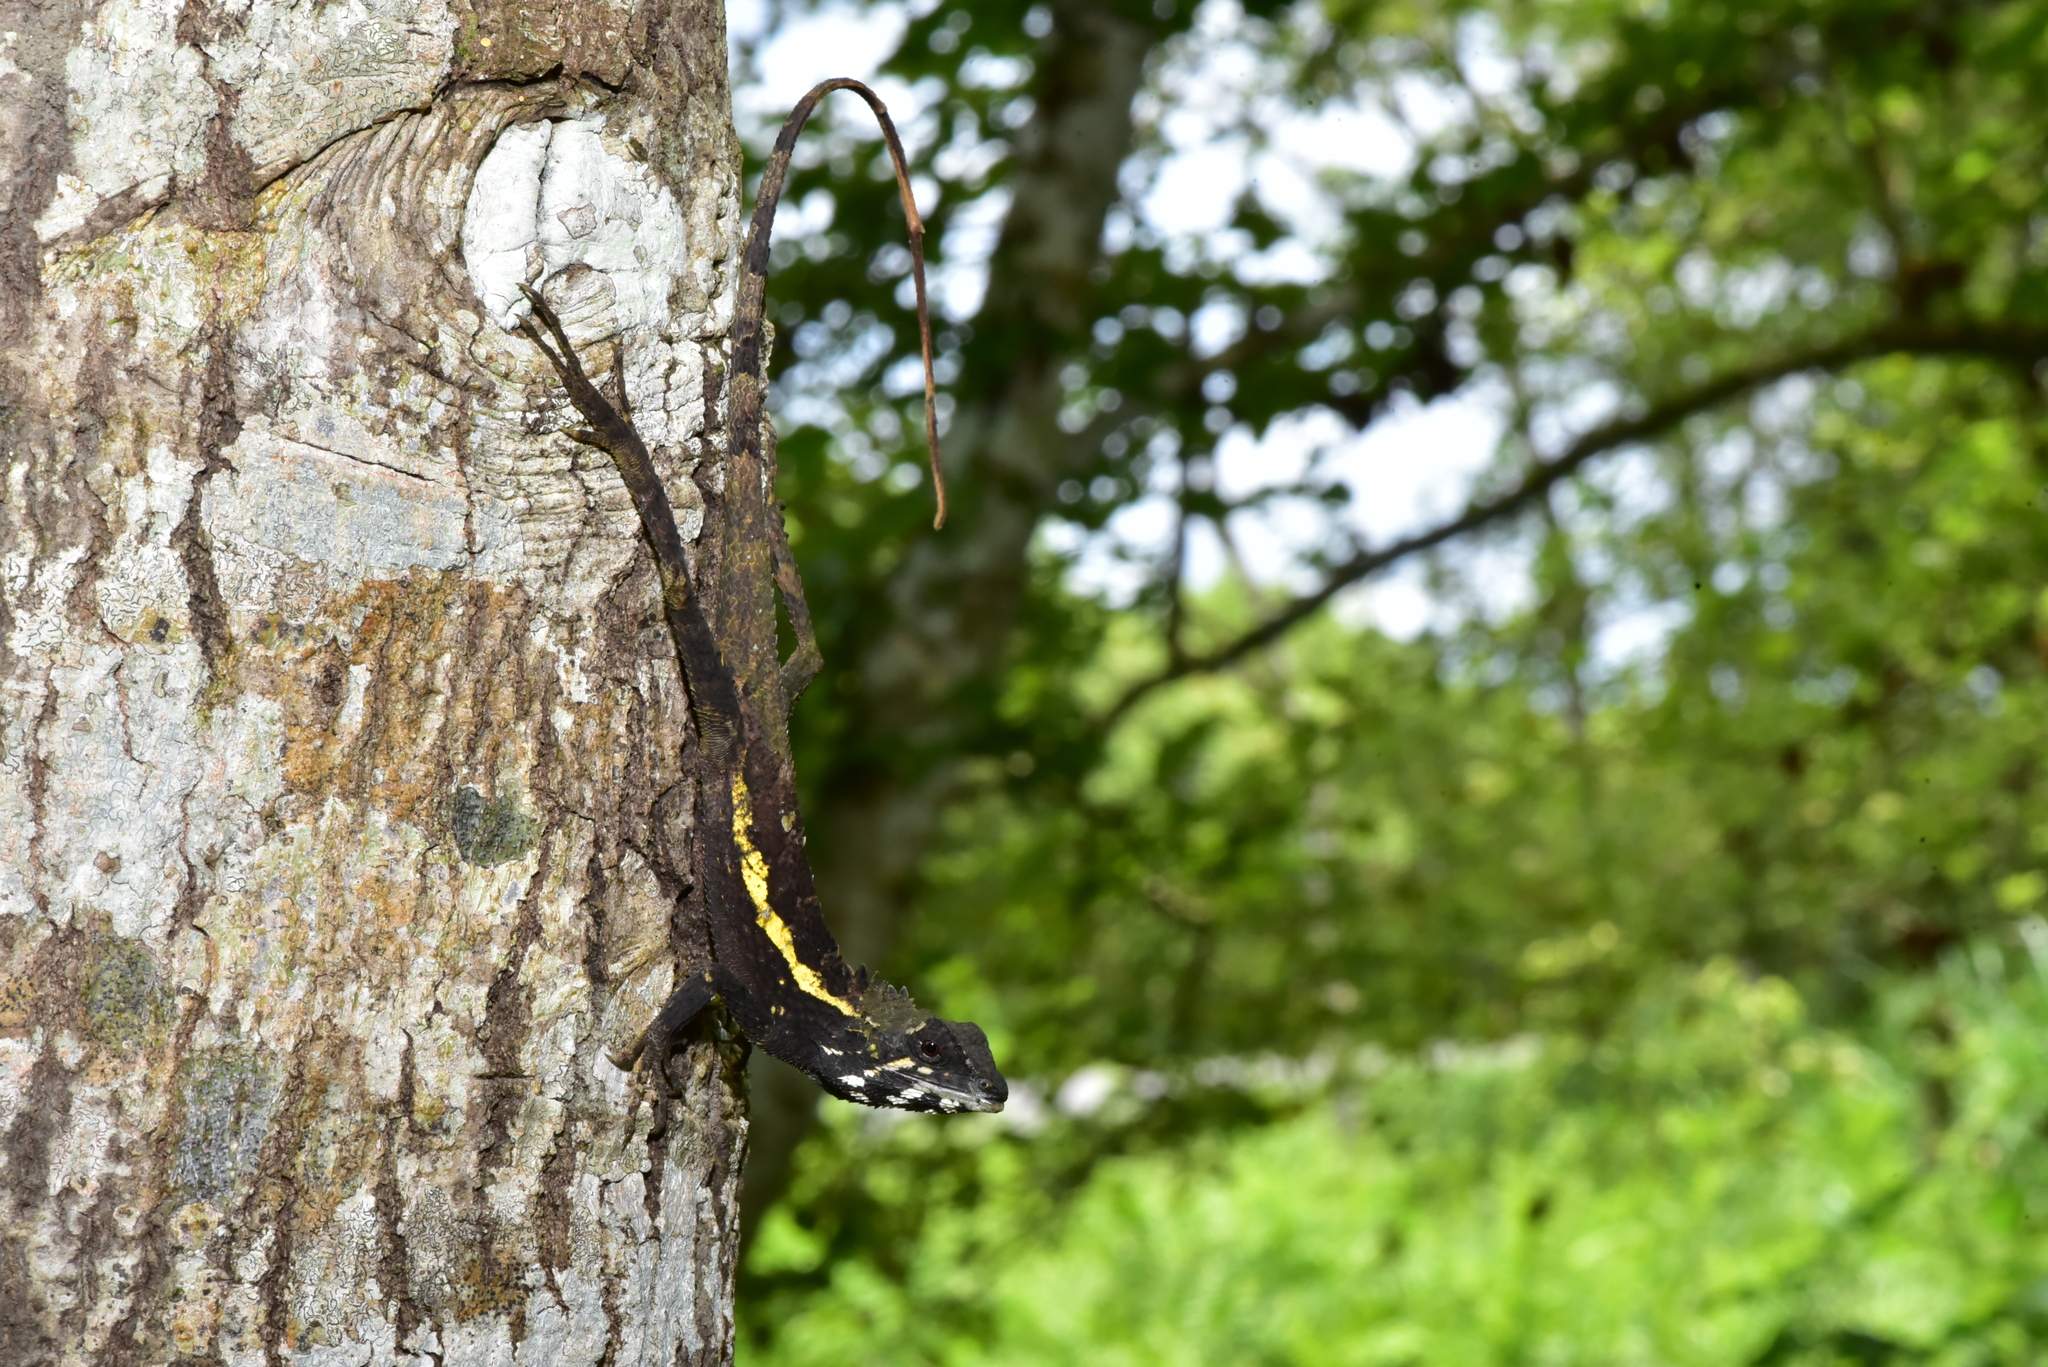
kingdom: Animalia
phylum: Chordata
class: Squamata
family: Agamidae
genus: Diploderma
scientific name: Diploderma swinhonis
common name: Taiwan japalure
